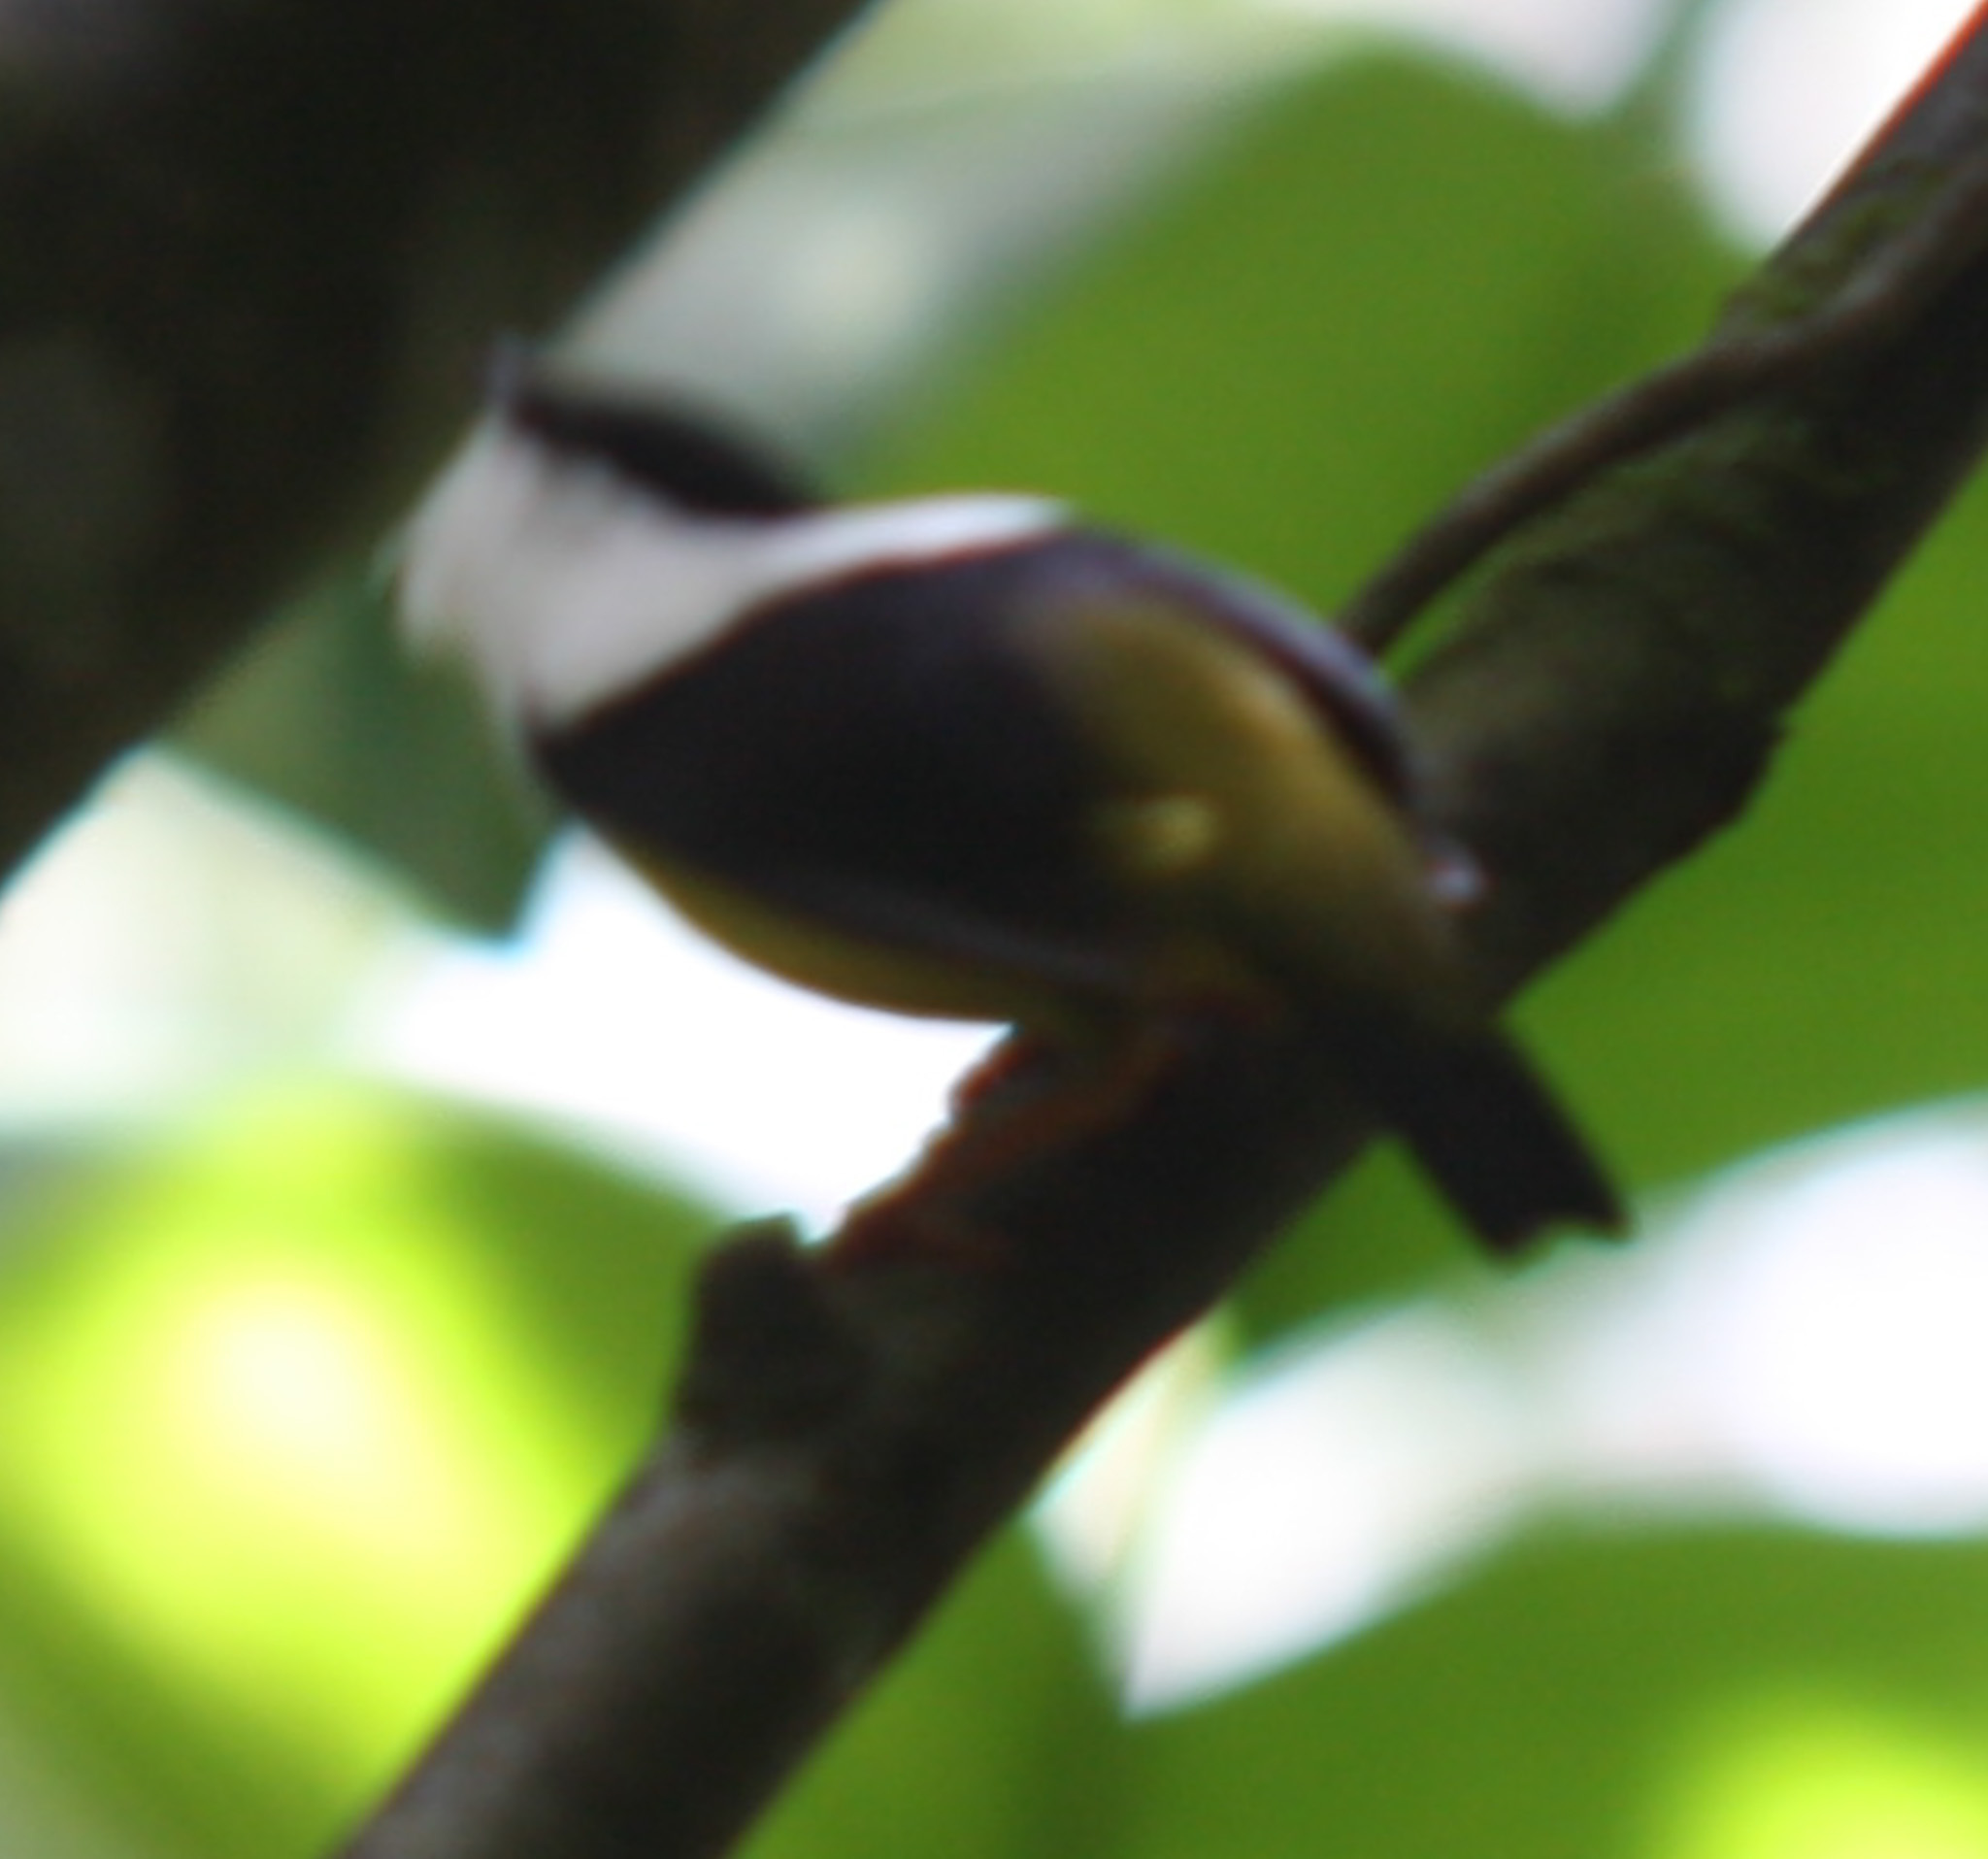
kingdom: Animalia
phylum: Chordata
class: Aves
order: Passeriformes
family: Pipridae
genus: Manacus
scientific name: Manacus candei
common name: White-collared manakin
